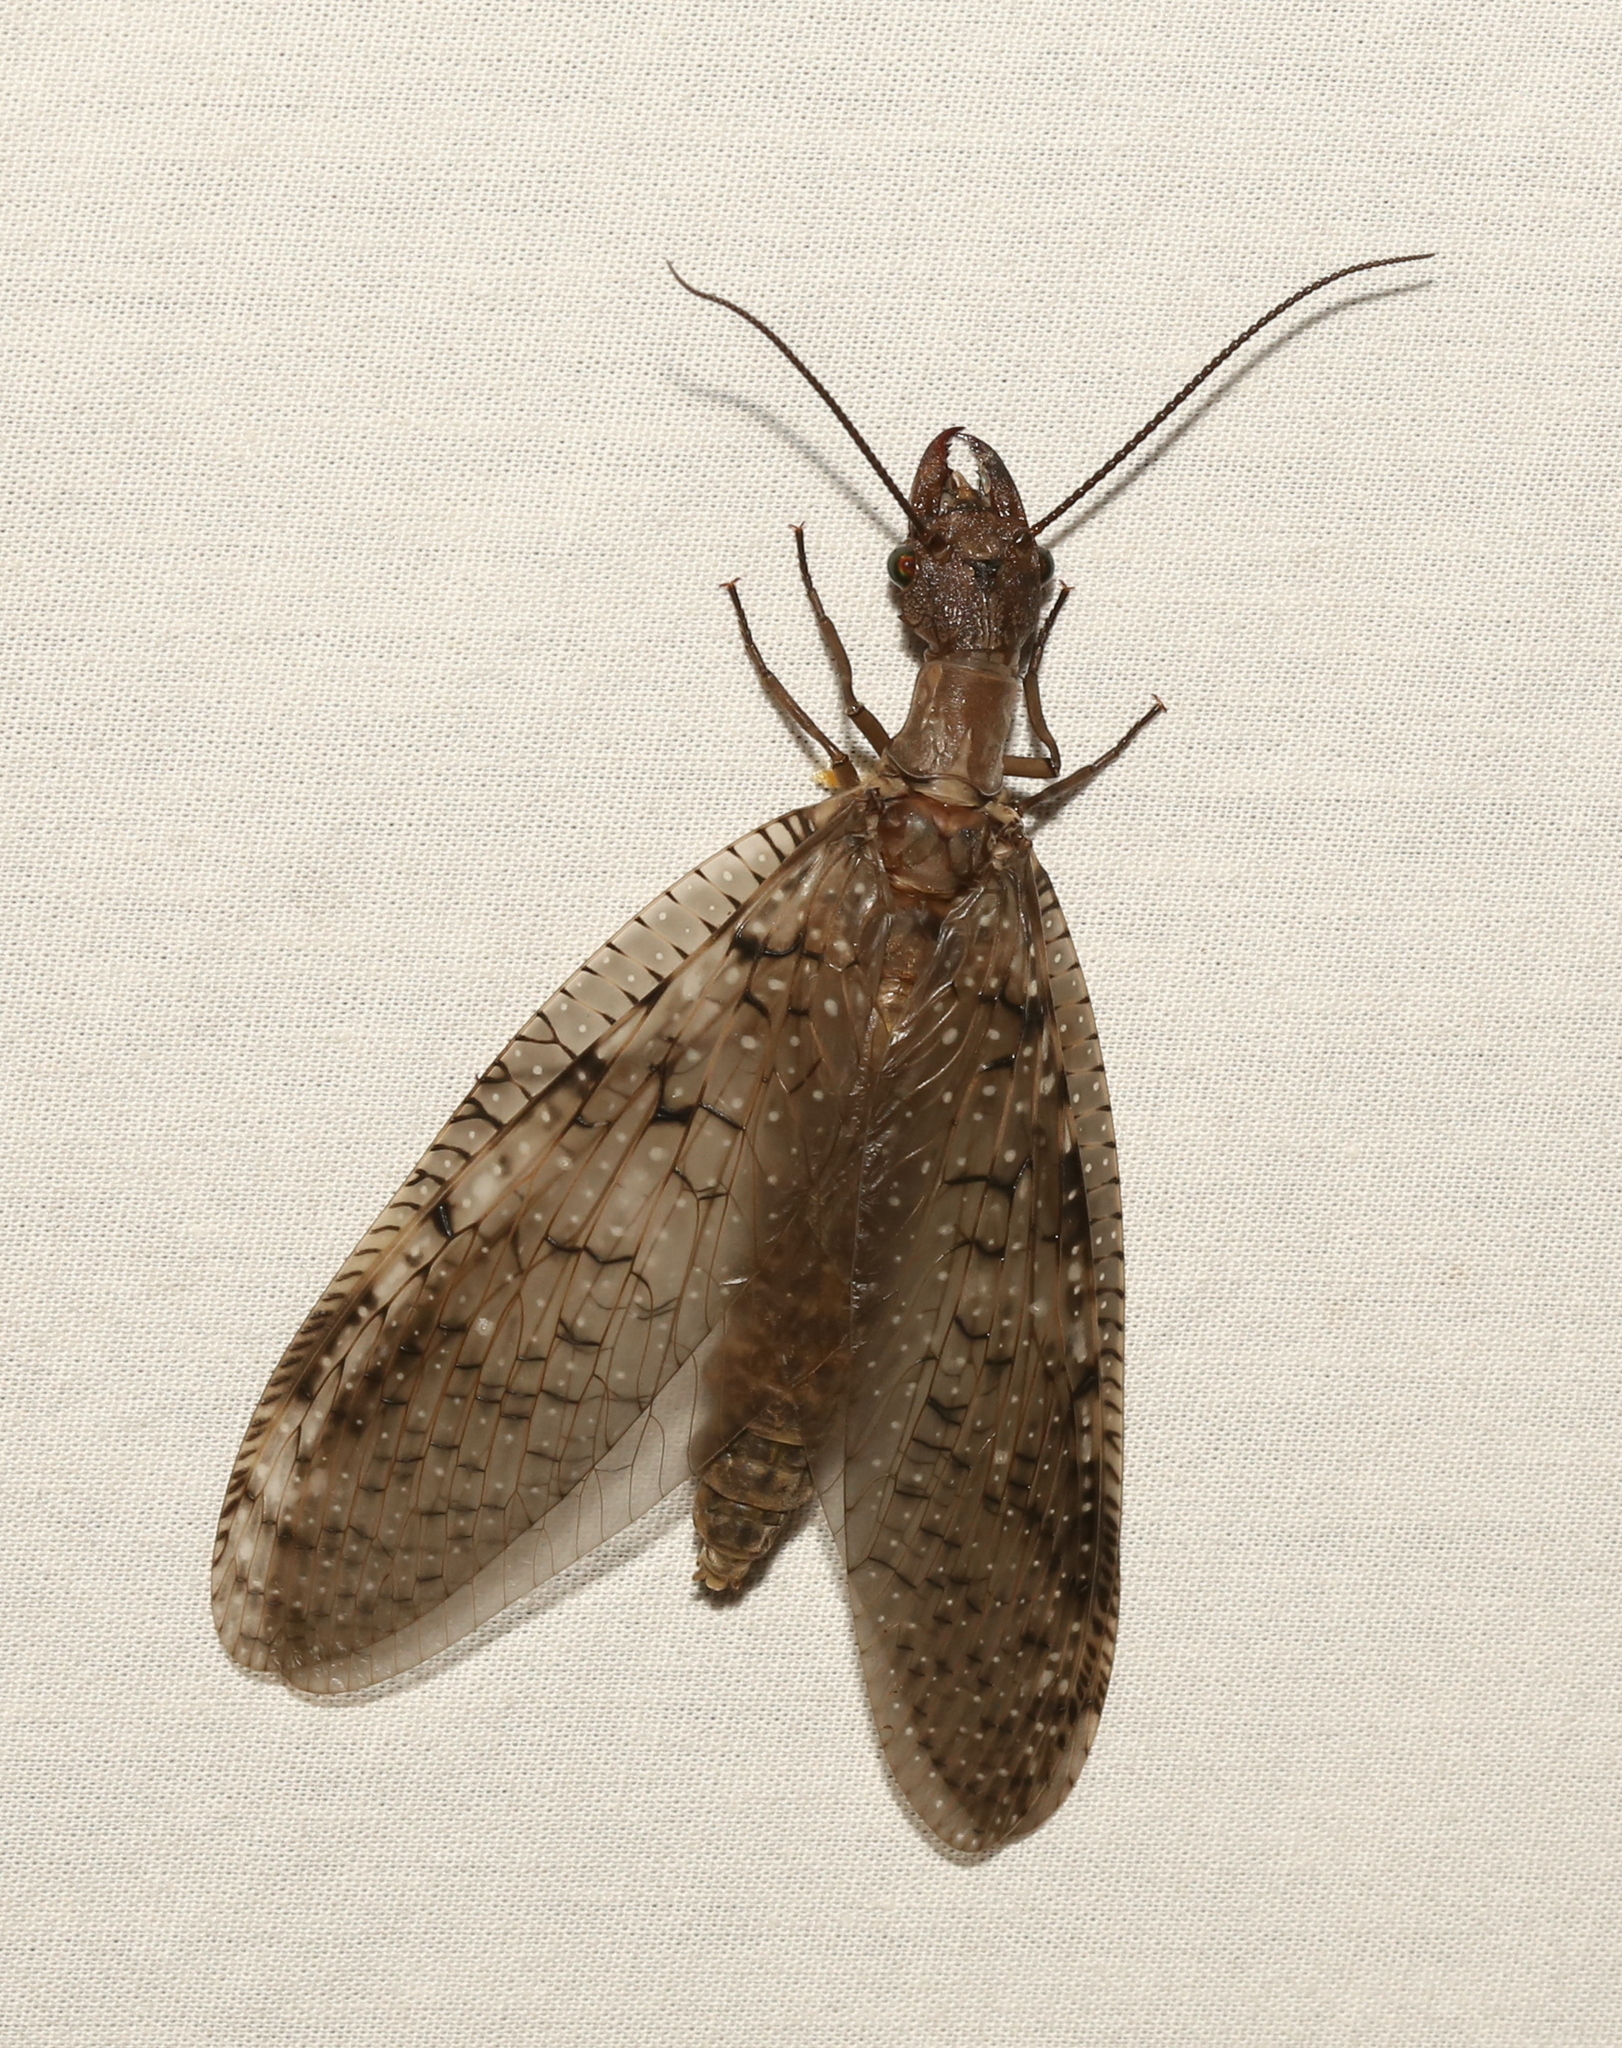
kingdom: Animalia
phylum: Arthropoda
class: Insecta
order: Megaloptera
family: Corydalidae
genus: Corydalus
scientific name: Corydalus cornutus
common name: Dobsonfly
